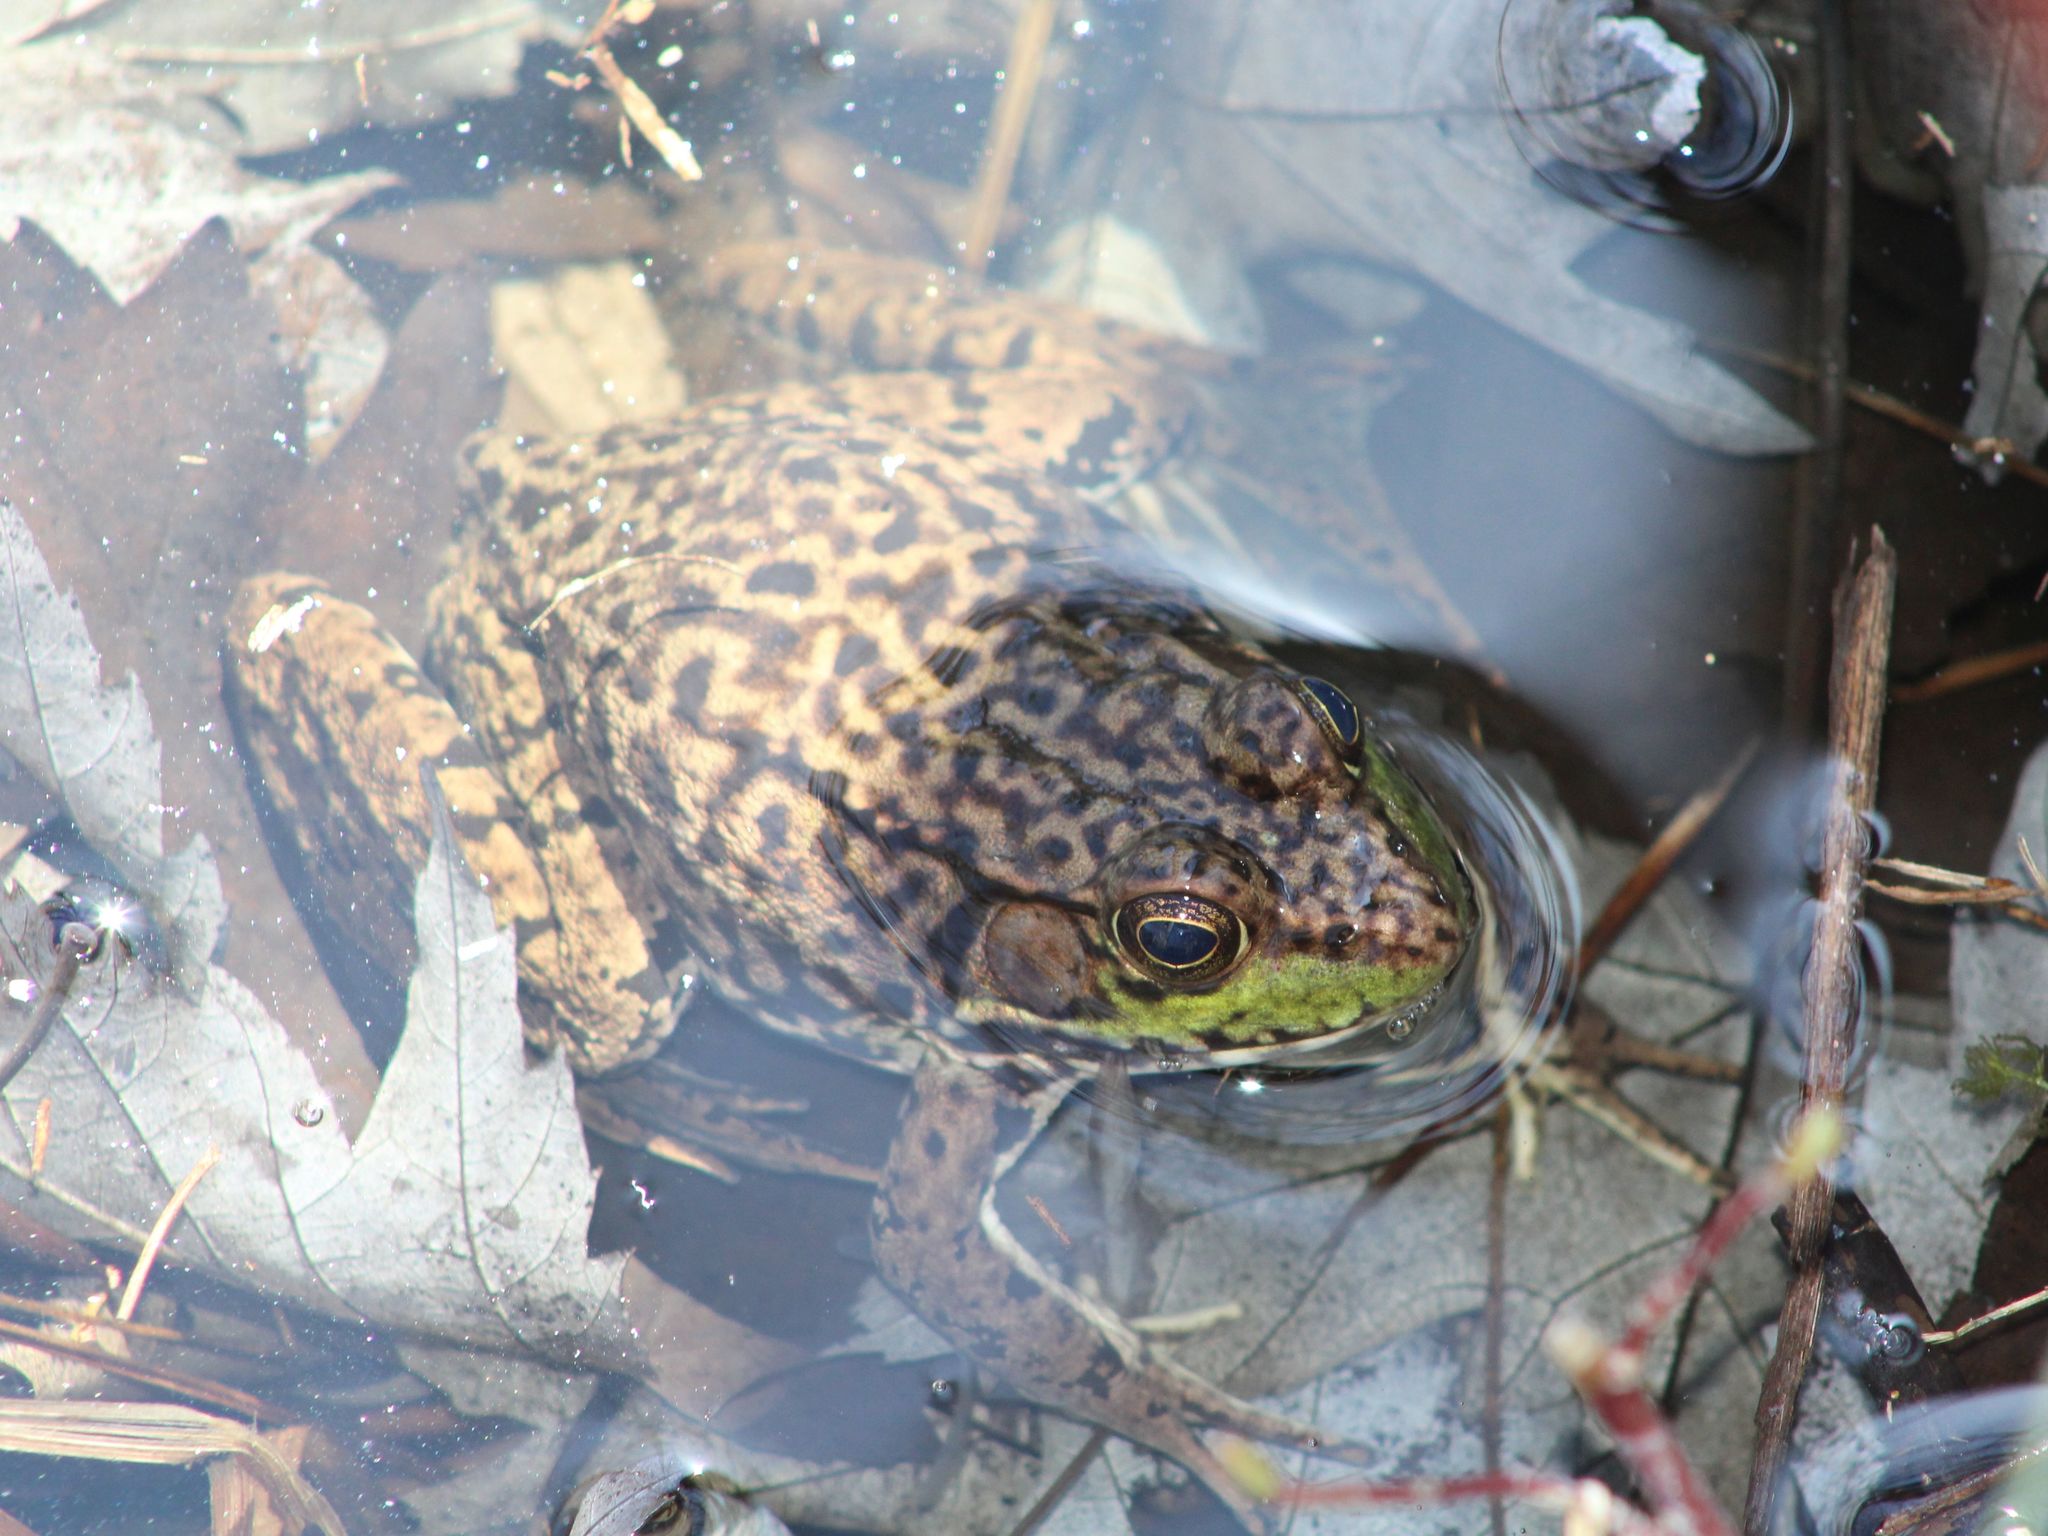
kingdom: Animalia
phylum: Chordata
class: Amphibia
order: Anura
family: Ranidae
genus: Lithobates
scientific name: Lithobates clamitans
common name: Green frog
